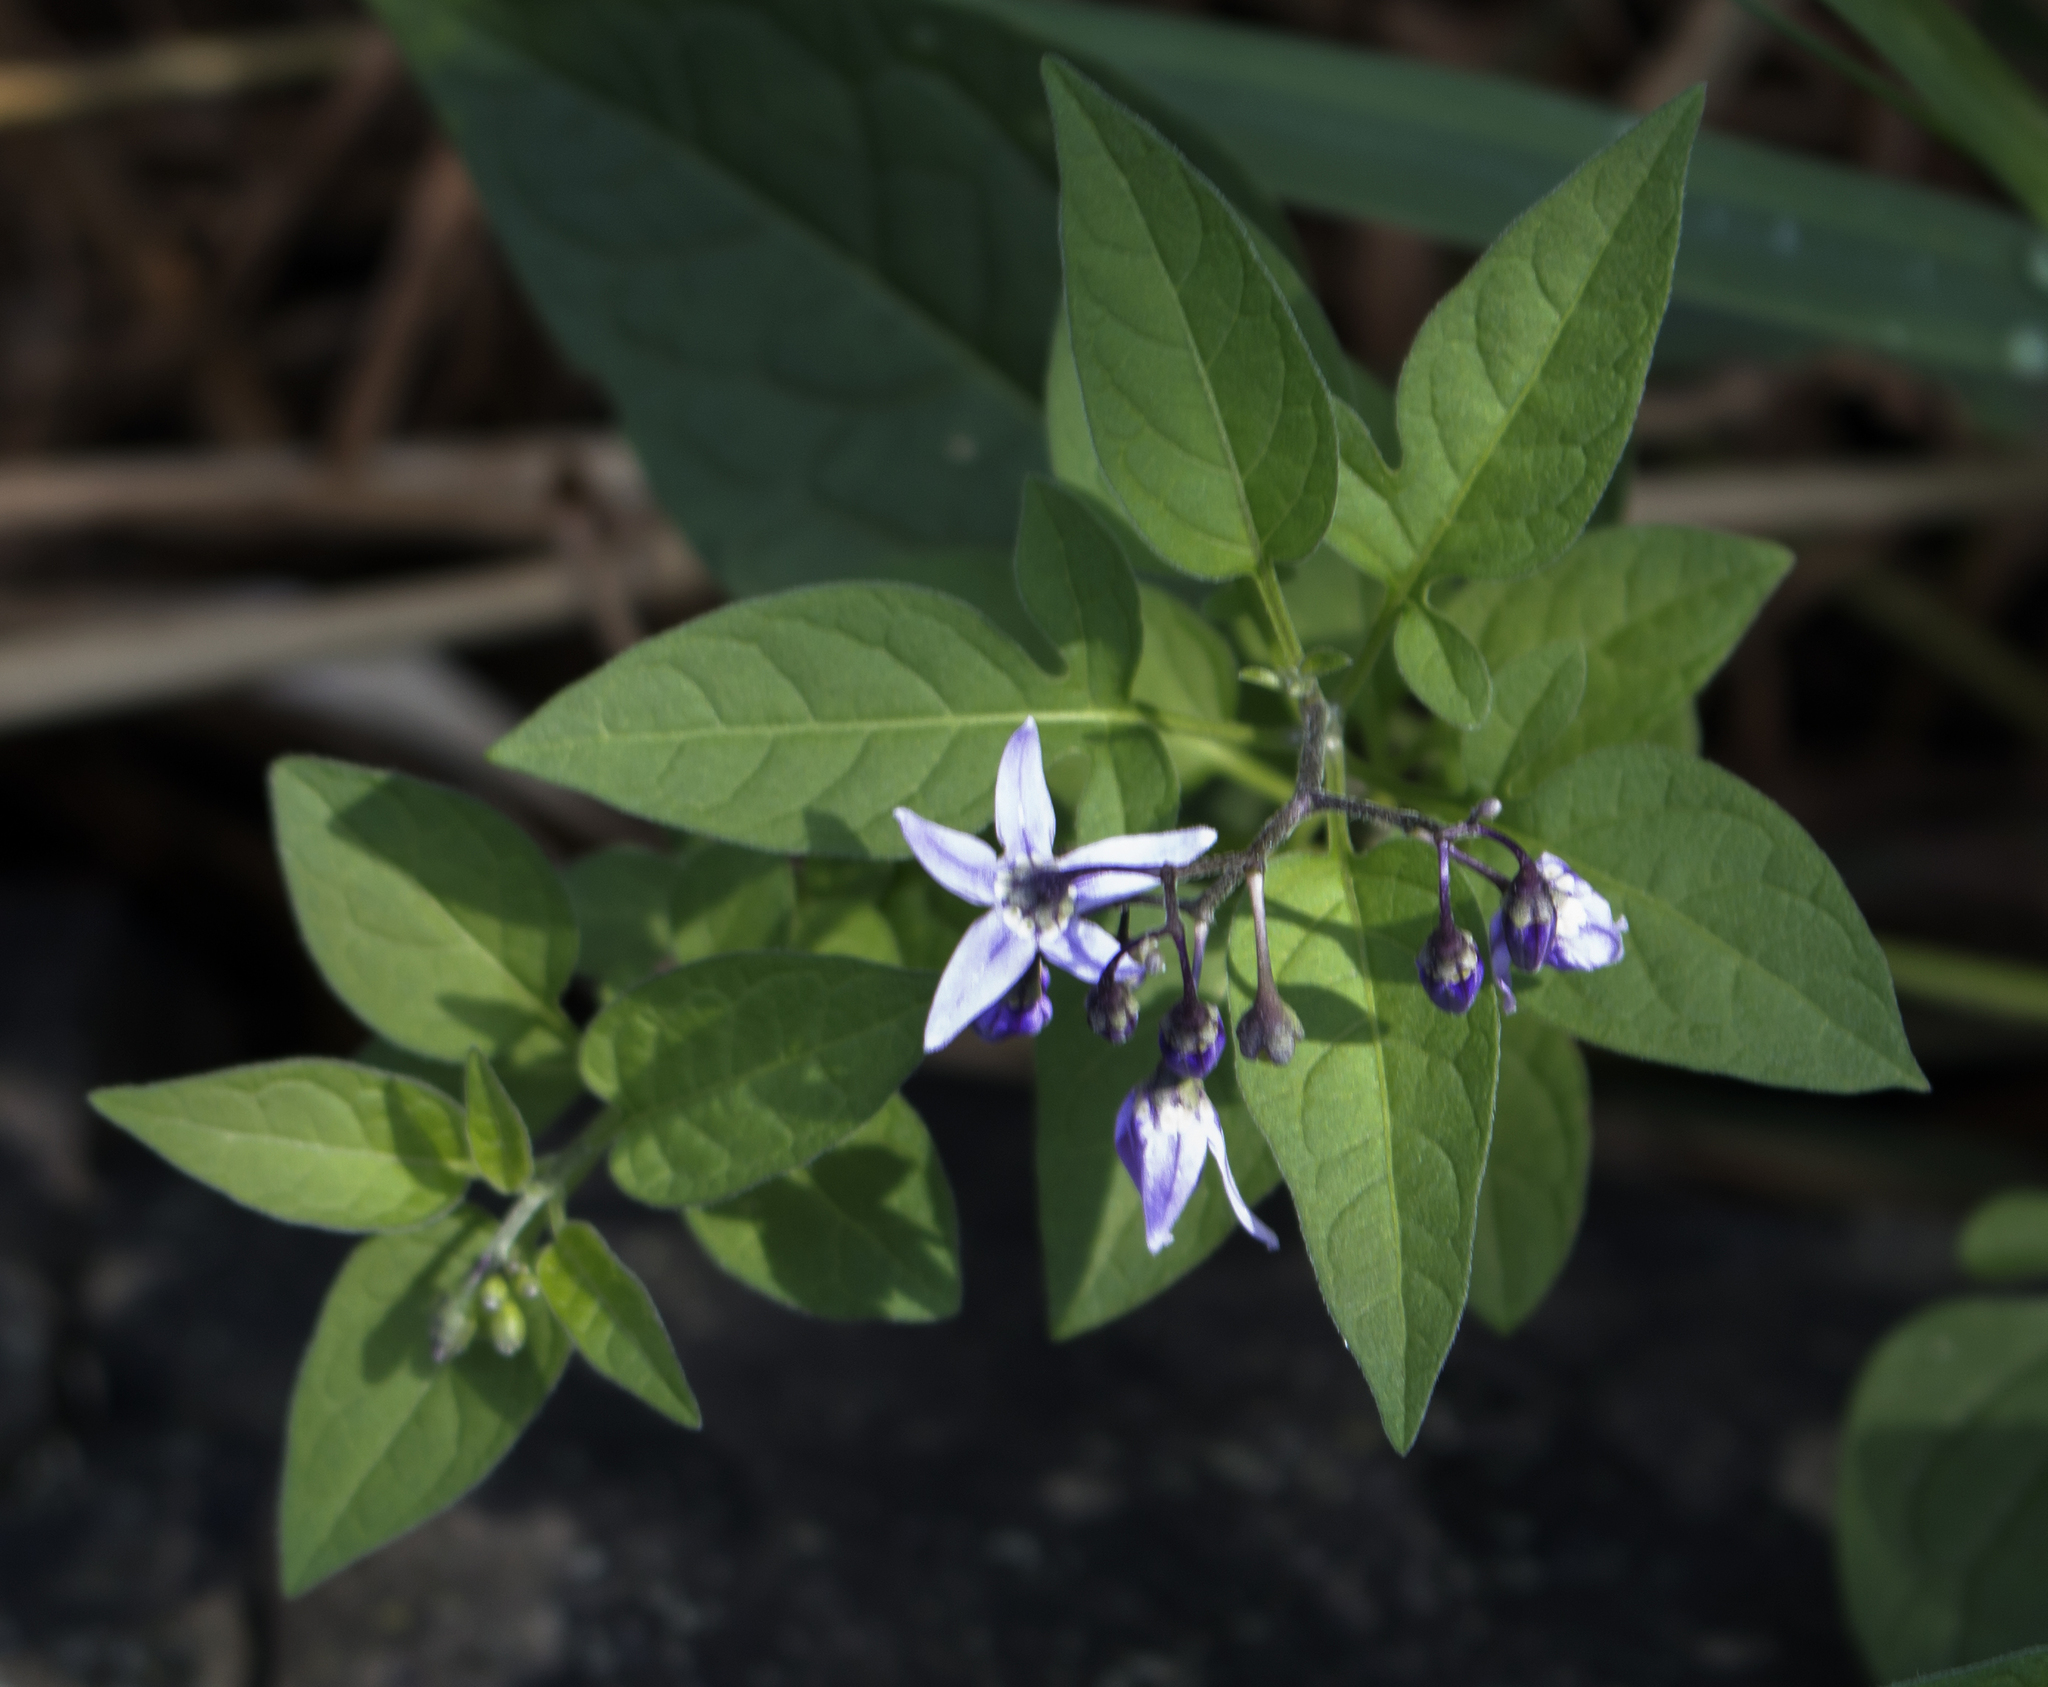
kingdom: Plantae
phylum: Tracheophyta
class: Magnoliopsida
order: Solanales
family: Solanaceae
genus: Solanum
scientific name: Solanum dulcamara
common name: Climbing nightshade
